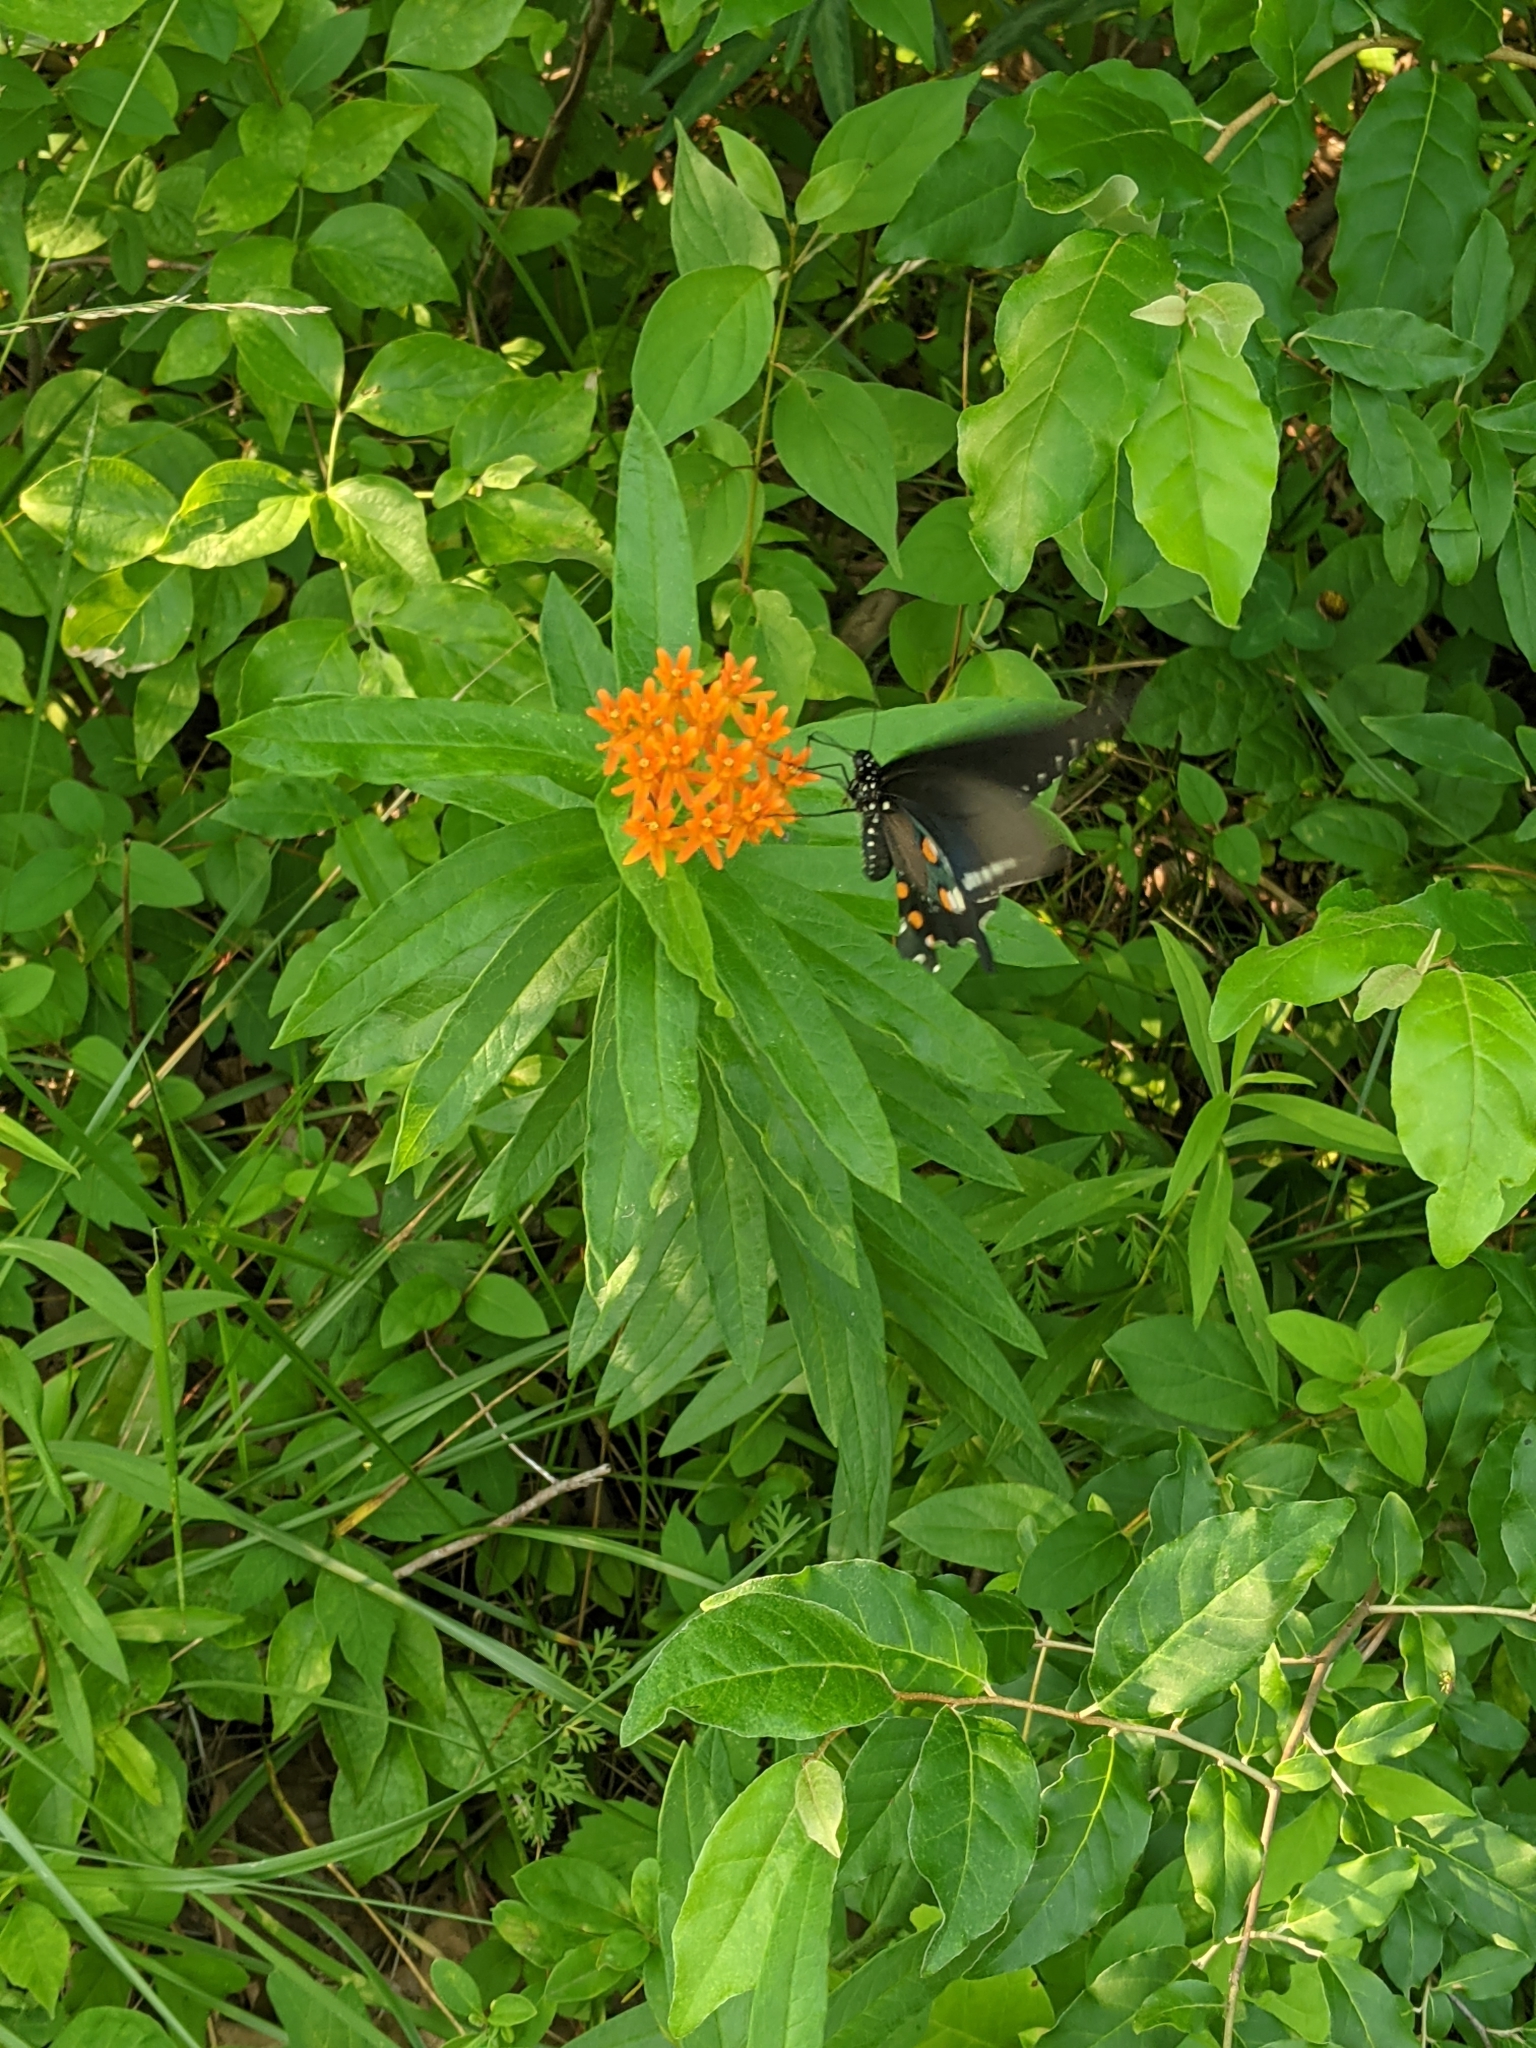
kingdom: Plantae
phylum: Tracheophyta
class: Magnoliopsida
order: Gentianales
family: Apocynaceae
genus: Asclepias
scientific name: Asclepias tuberosa
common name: Butterfly milkweed
